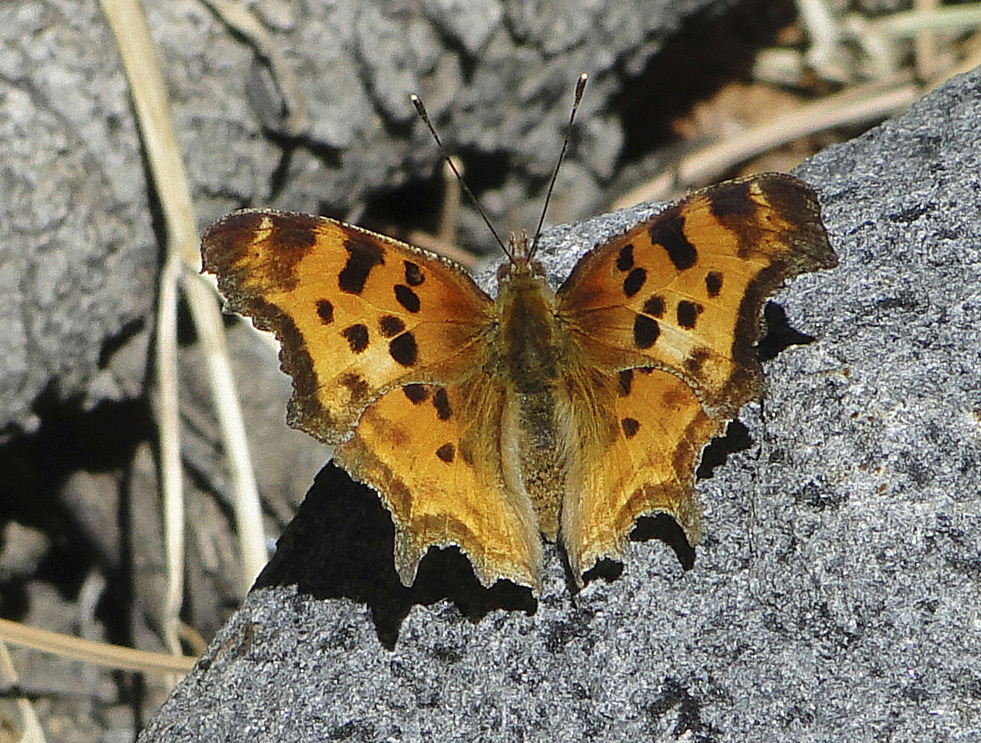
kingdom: Animalia
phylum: Arthropoda
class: Insecta
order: Lepidoptera
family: Nymphalidae
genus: Polygonia
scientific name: Polygonia satyrus
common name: Satyr angle wing
